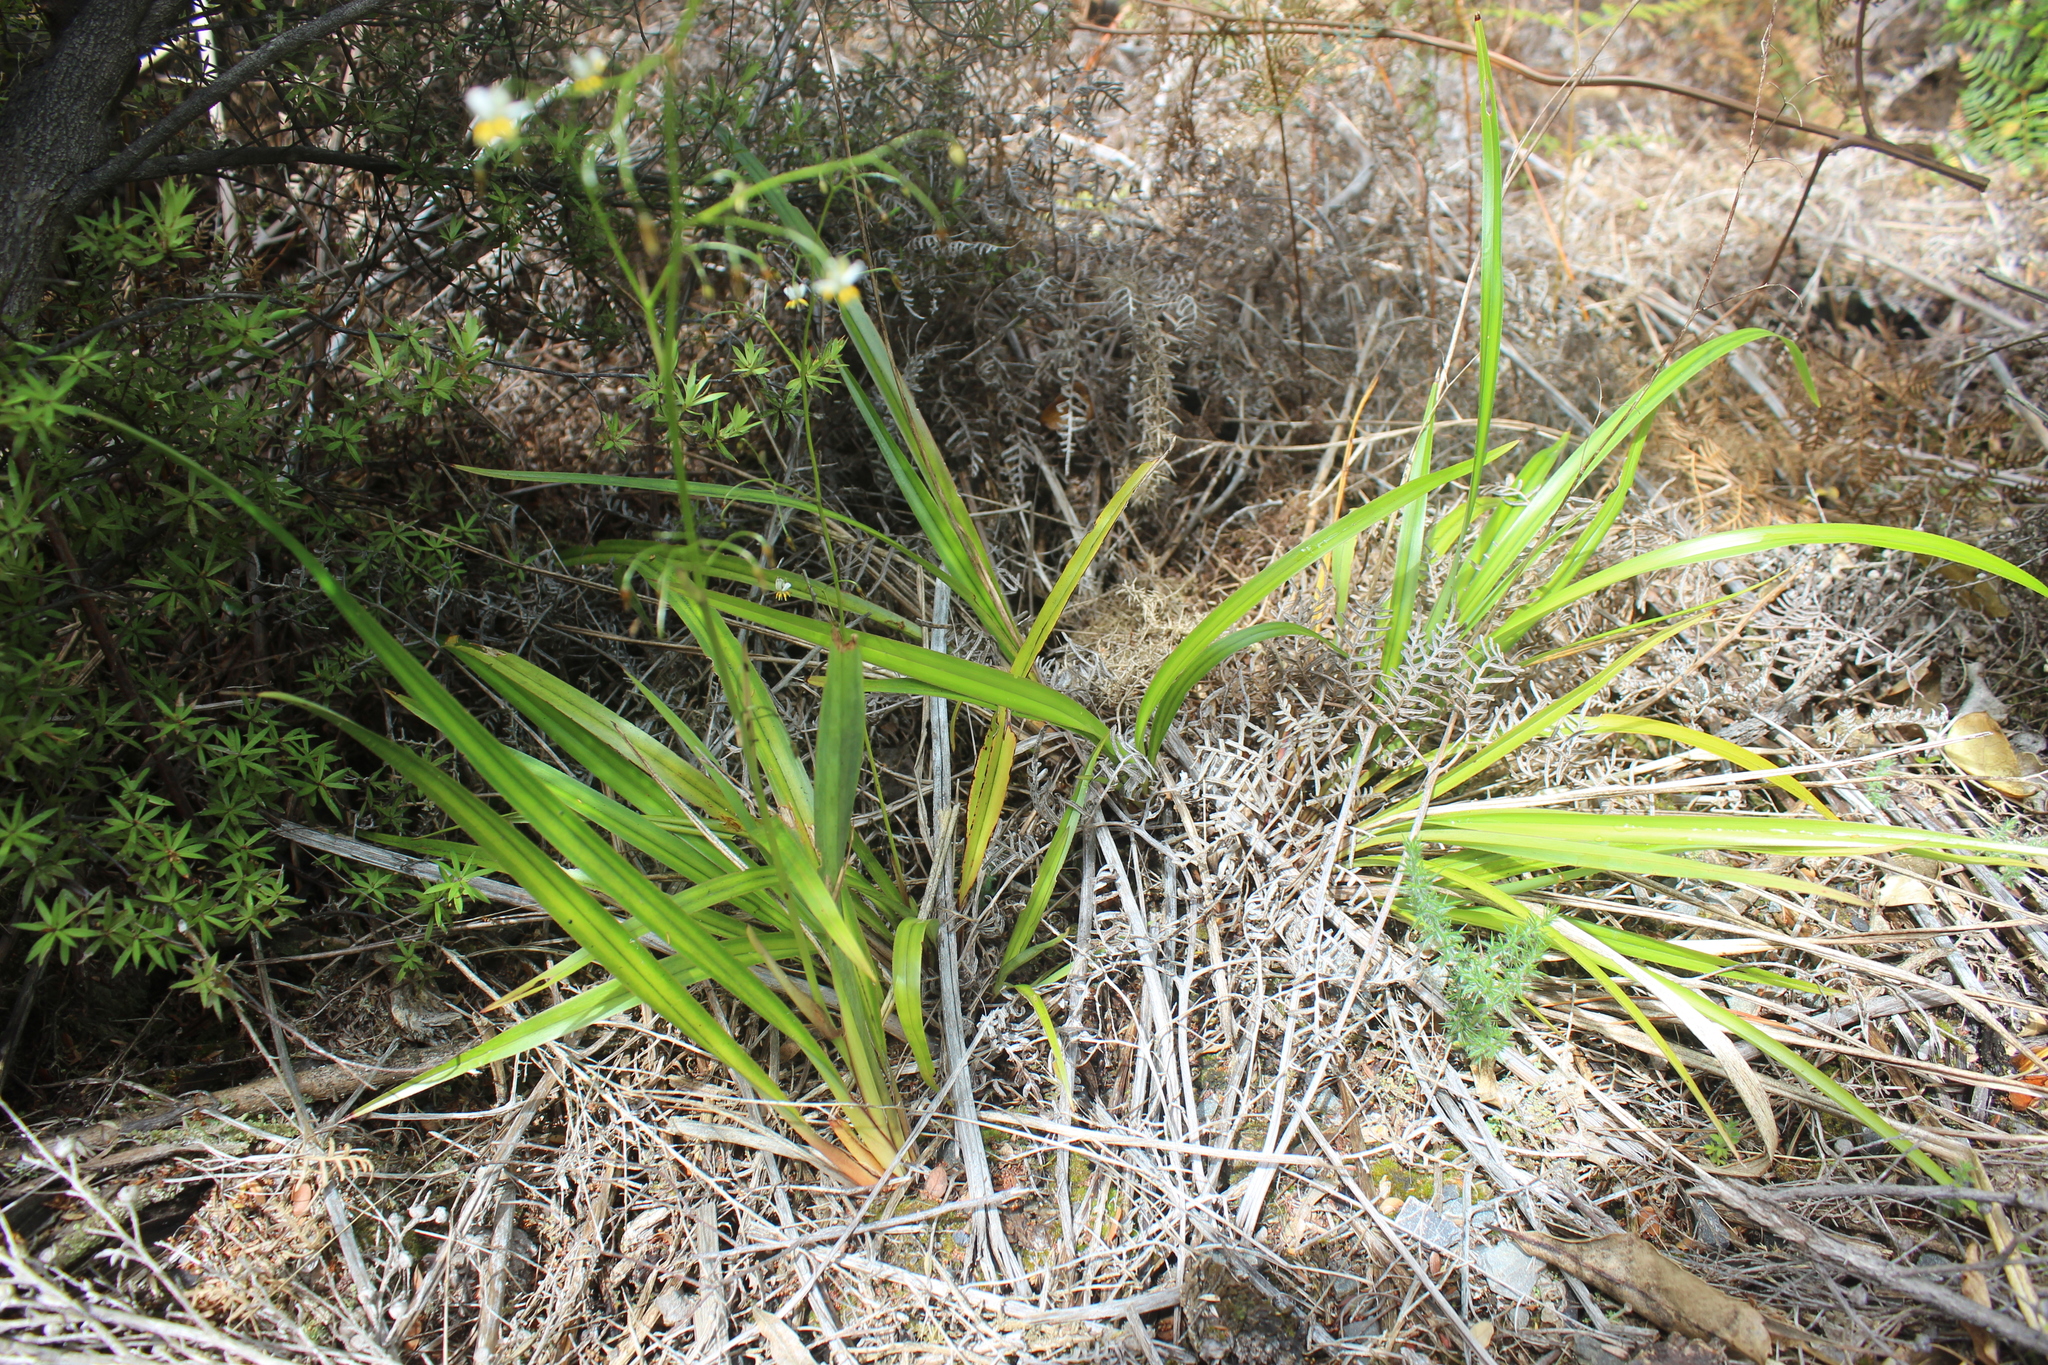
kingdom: Plantae
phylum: Tracheophyta
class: Liliopsida
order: Asparagales
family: Asphodelaceae
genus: Dianella
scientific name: Dianella nigra
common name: New zealand-blueberry
